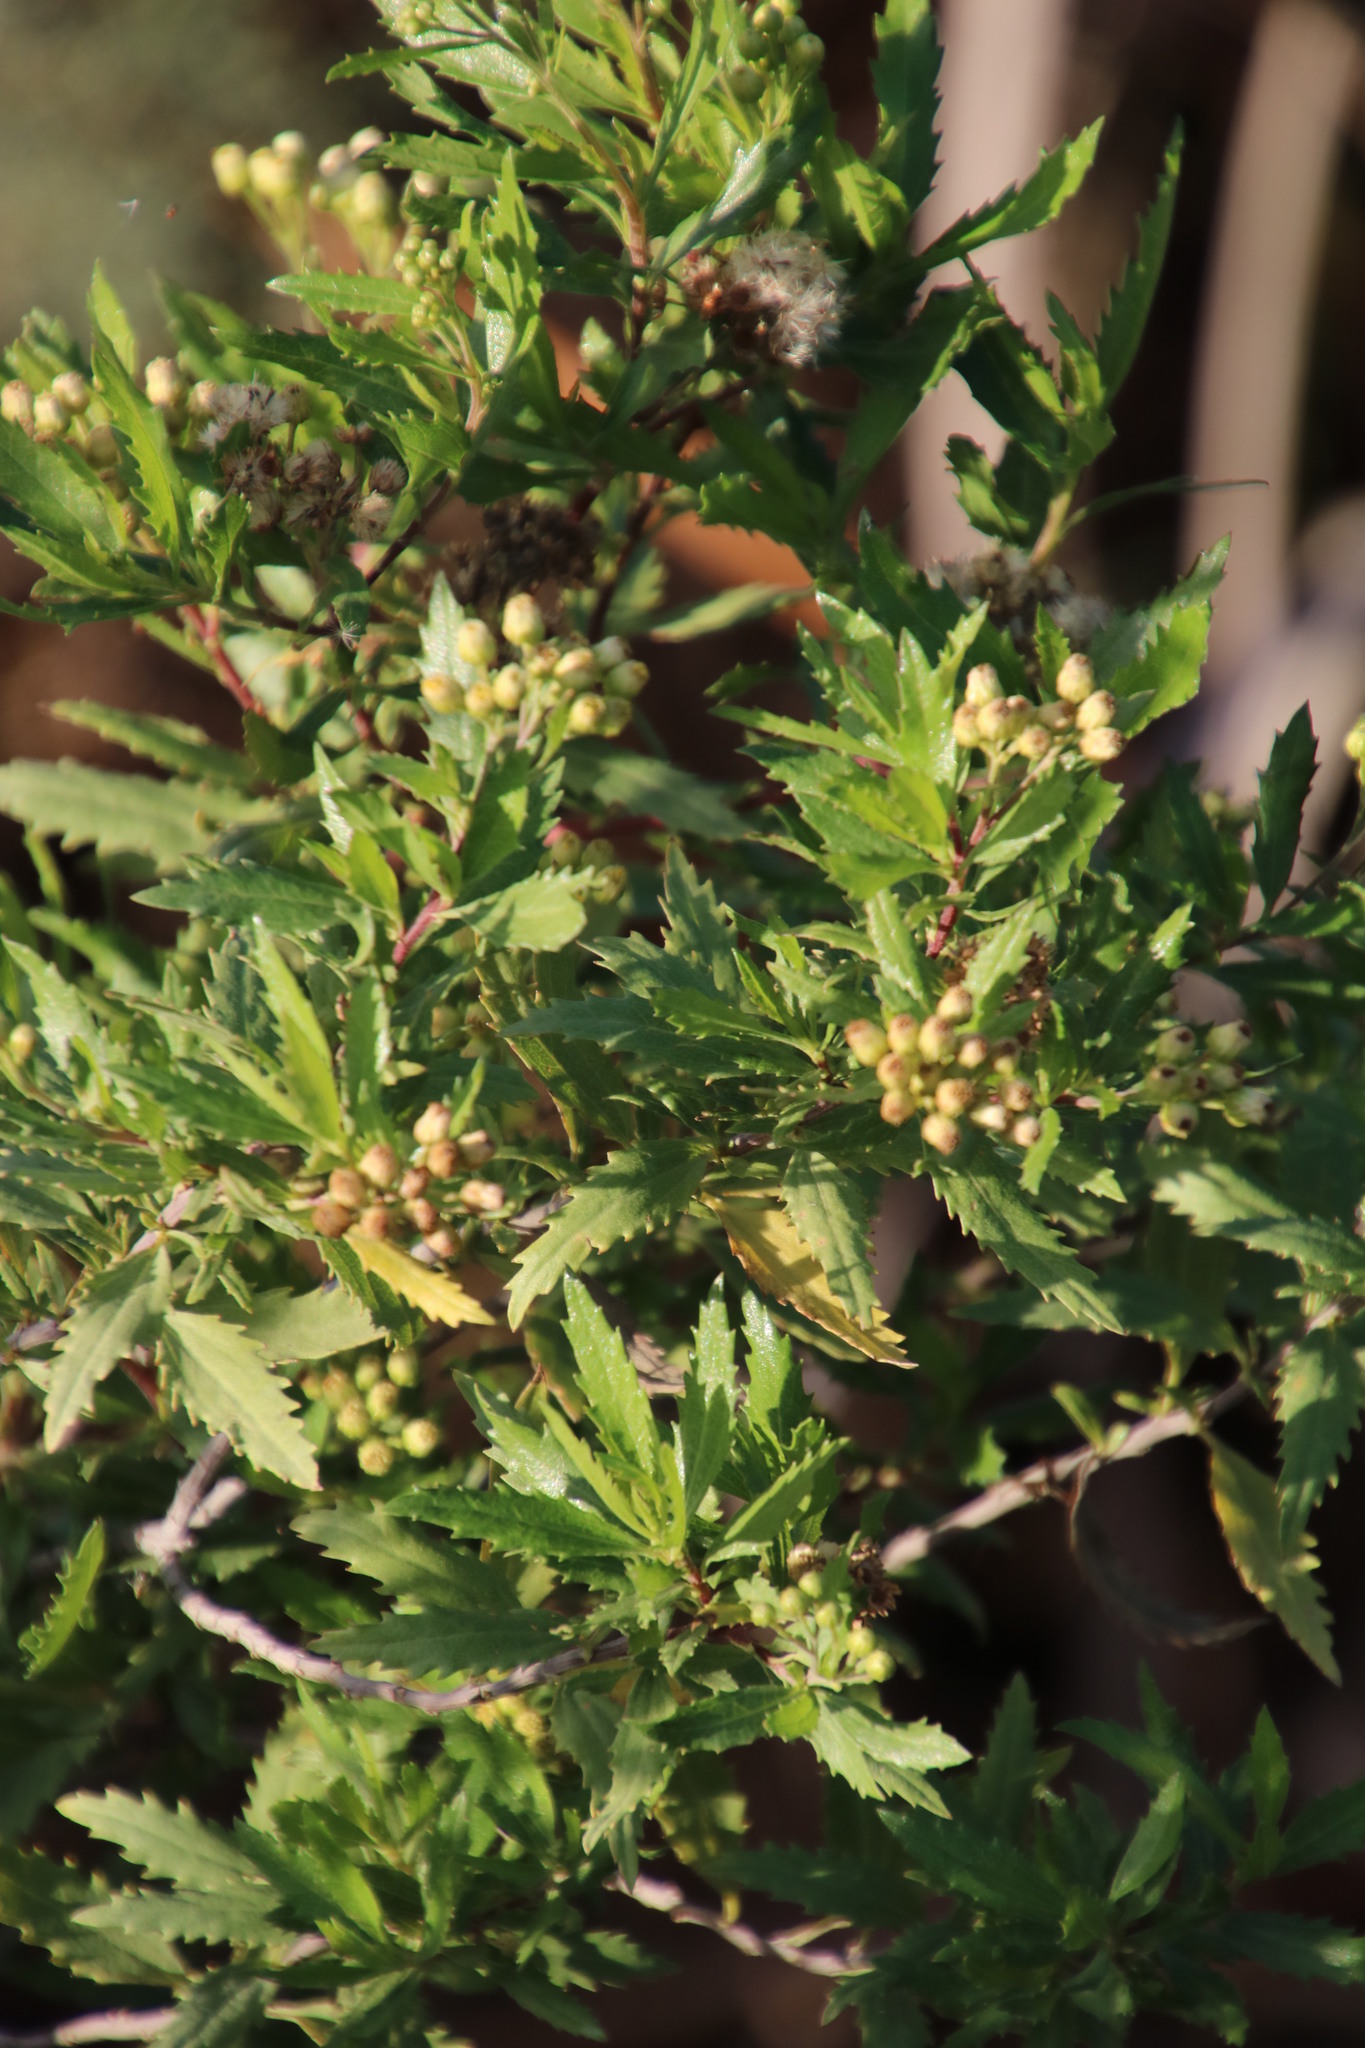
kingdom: Plantae
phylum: Tracheophyta
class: Magnoliopsida
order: Asterales
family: Asteraceae
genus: Nidorella
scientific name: Nidorella ivifolia
